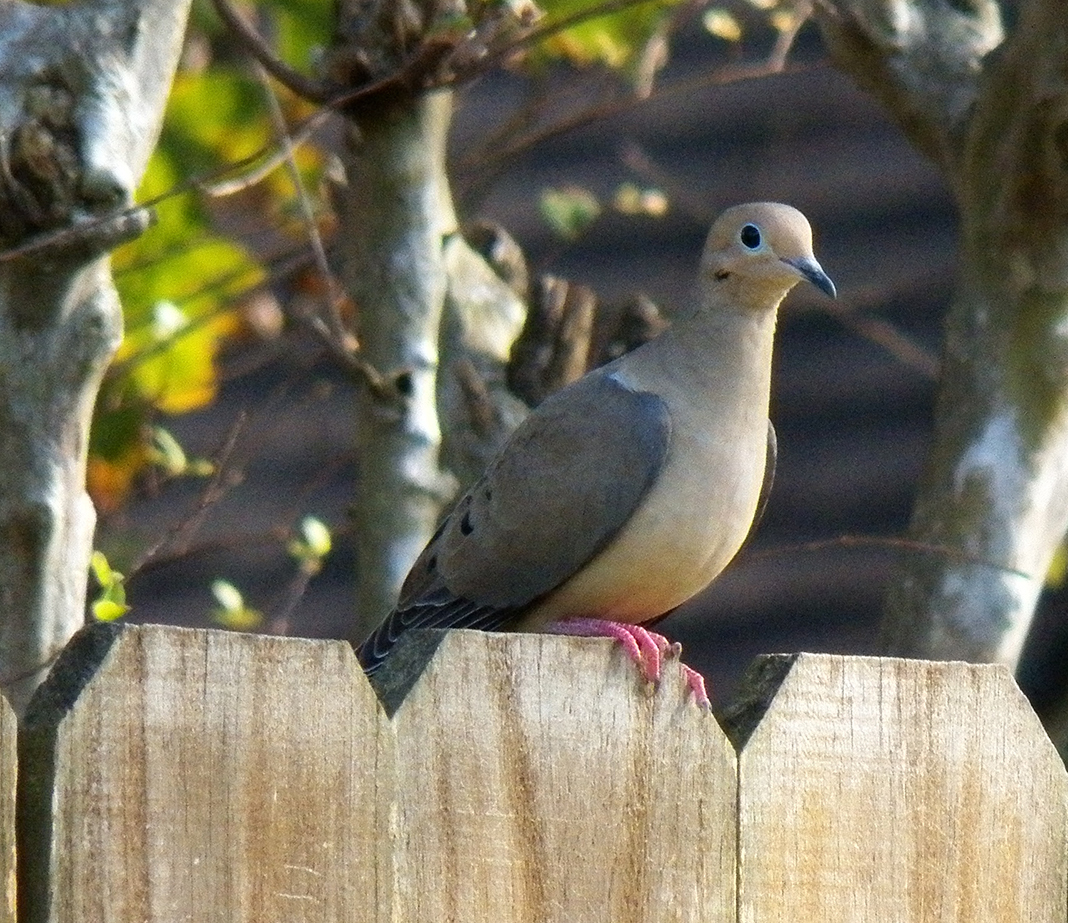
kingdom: Animalia
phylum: Chordata
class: Aves
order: Columbiformes
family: Columbidae
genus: Zenaida
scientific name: Zenaida macroura
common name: Mourning dove
